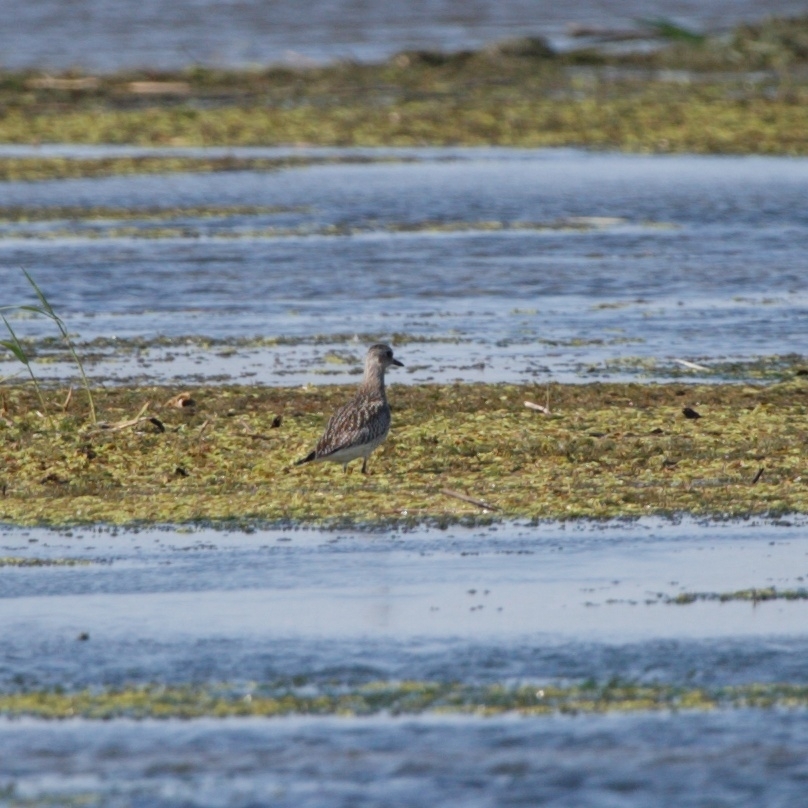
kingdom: Animalia
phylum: Chordata
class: Aves
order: Charadriiformes
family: Charadriidae
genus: Pluvialis
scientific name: Pluvialis squatarola
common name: Grey plover
